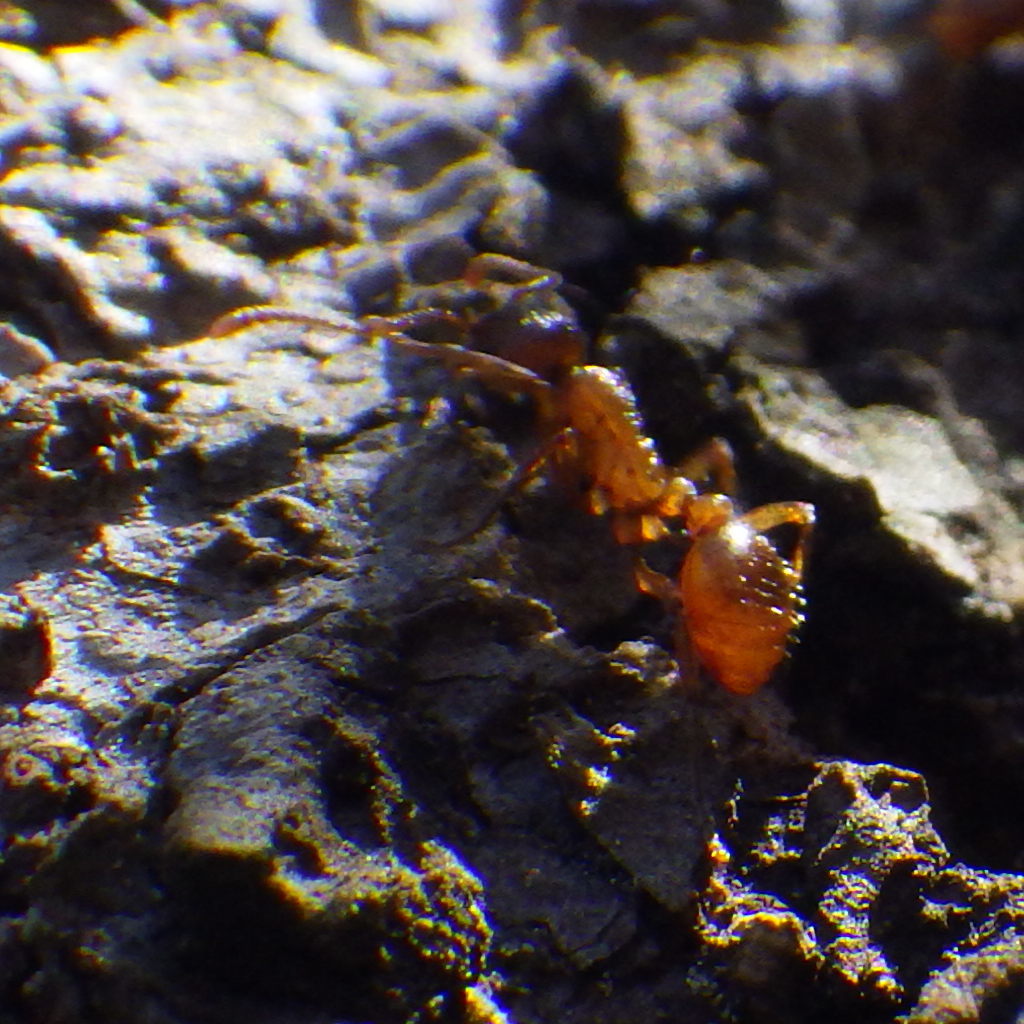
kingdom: Animalia
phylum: Arthropoda
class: Insecta
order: Hymenoptera
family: Formicidae
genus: Myrmica
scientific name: Myrmica rubra
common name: European fire ant
